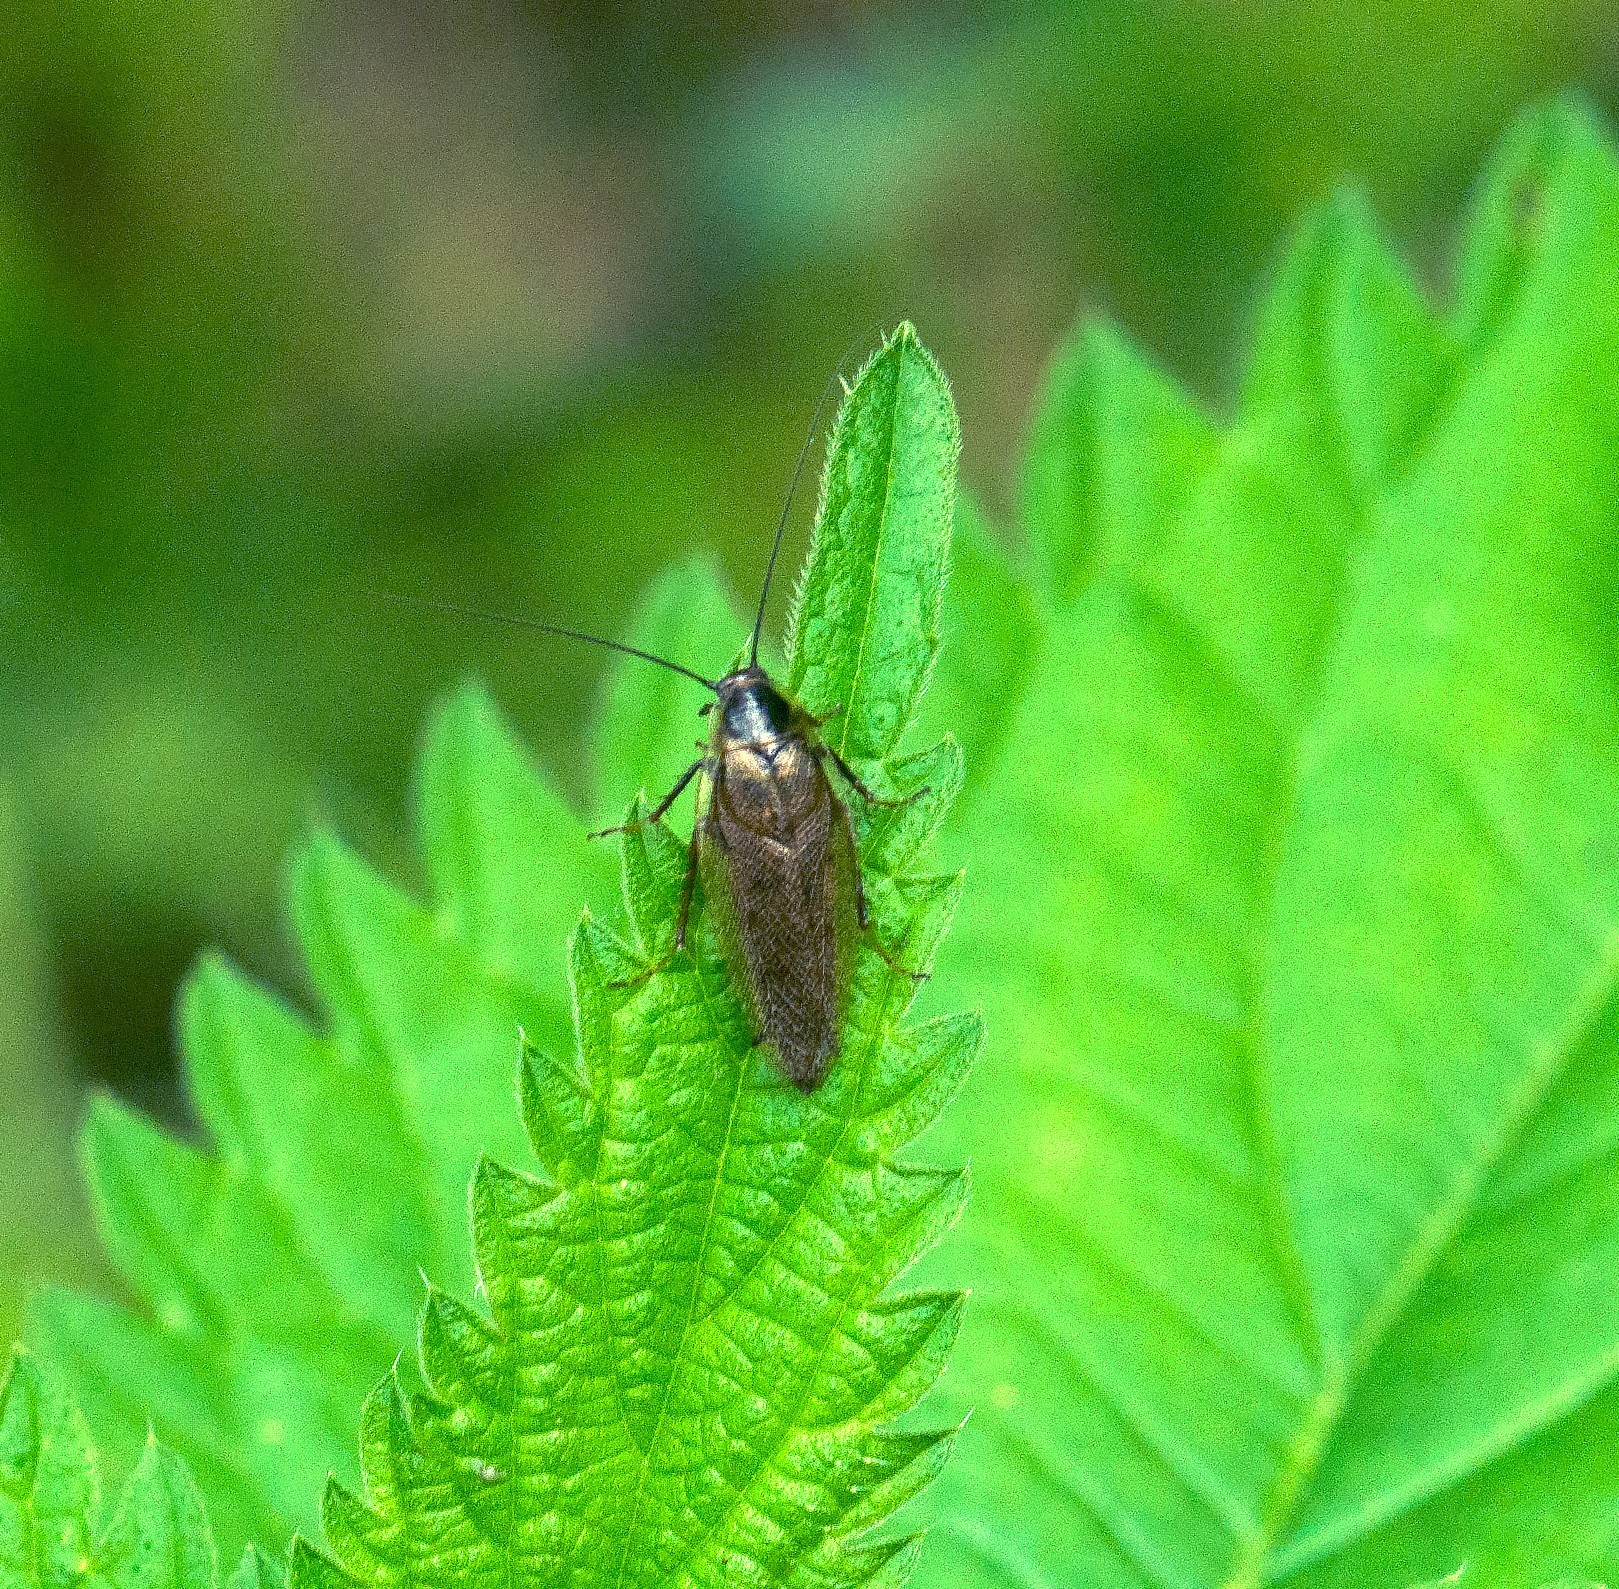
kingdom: Animalia
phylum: Arthropoda
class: Insecta
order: Blattodea
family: Ectobiidae
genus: Ectobius
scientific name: Ectobius lapponicus
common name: Dusky cockroach
